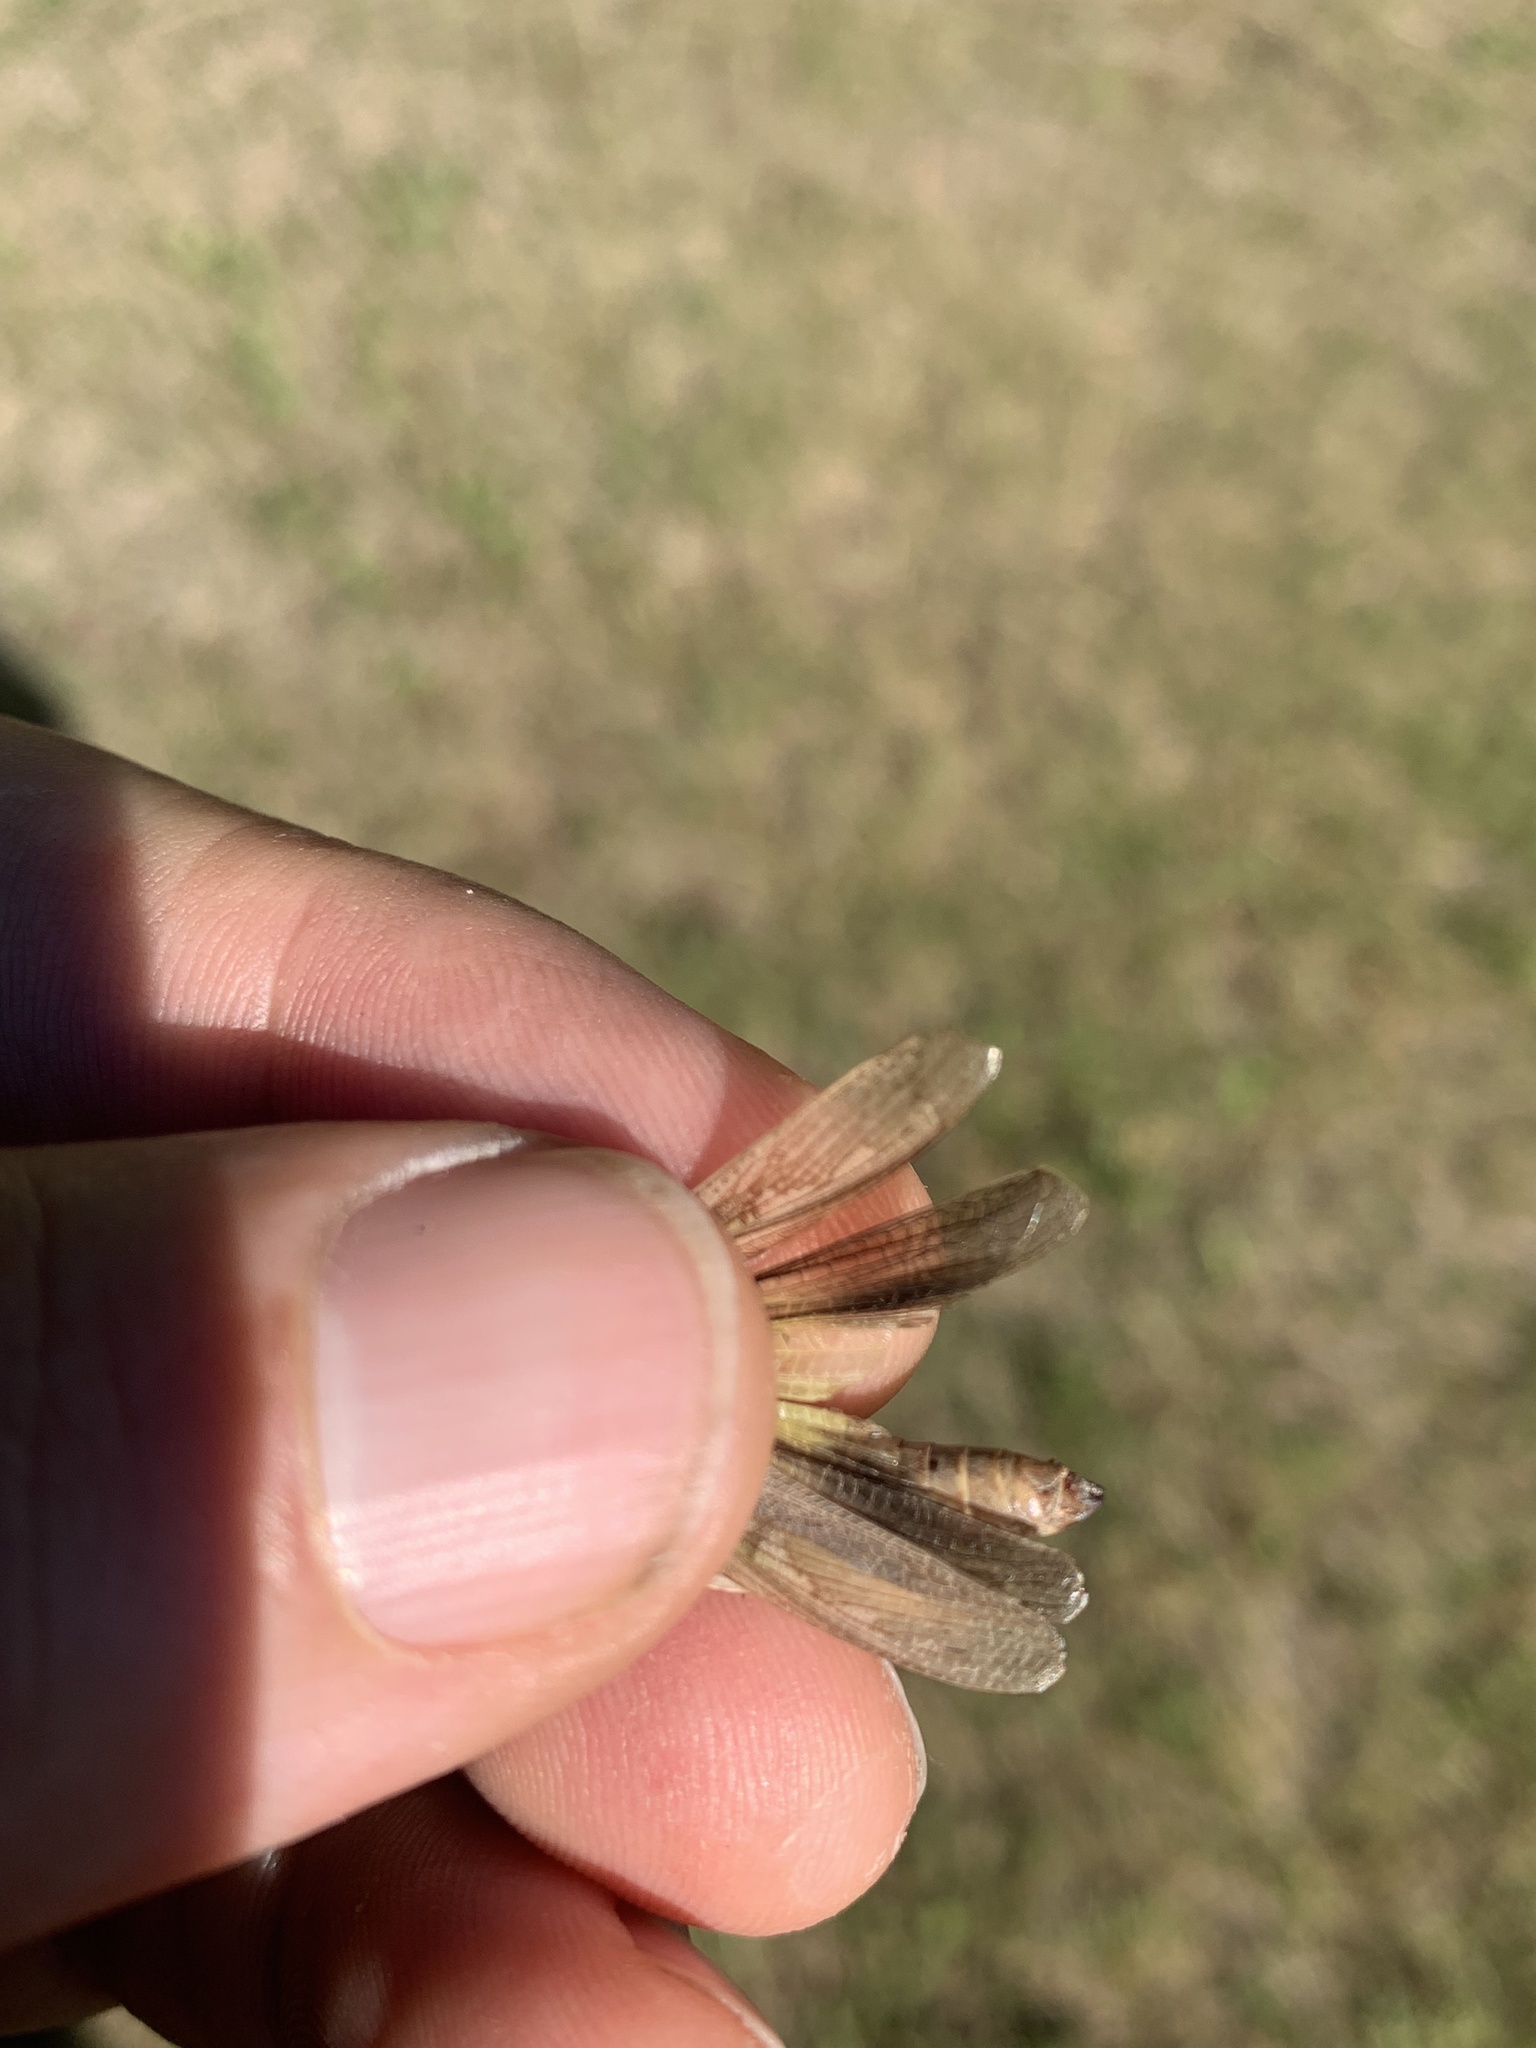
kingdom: Animalia
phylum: Arthropoda
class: Insecta
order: Orthoptera
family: Acrididae
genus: Chortophaga
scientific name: Chortophaga viridifasciata
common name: Green-striped grasshopper
